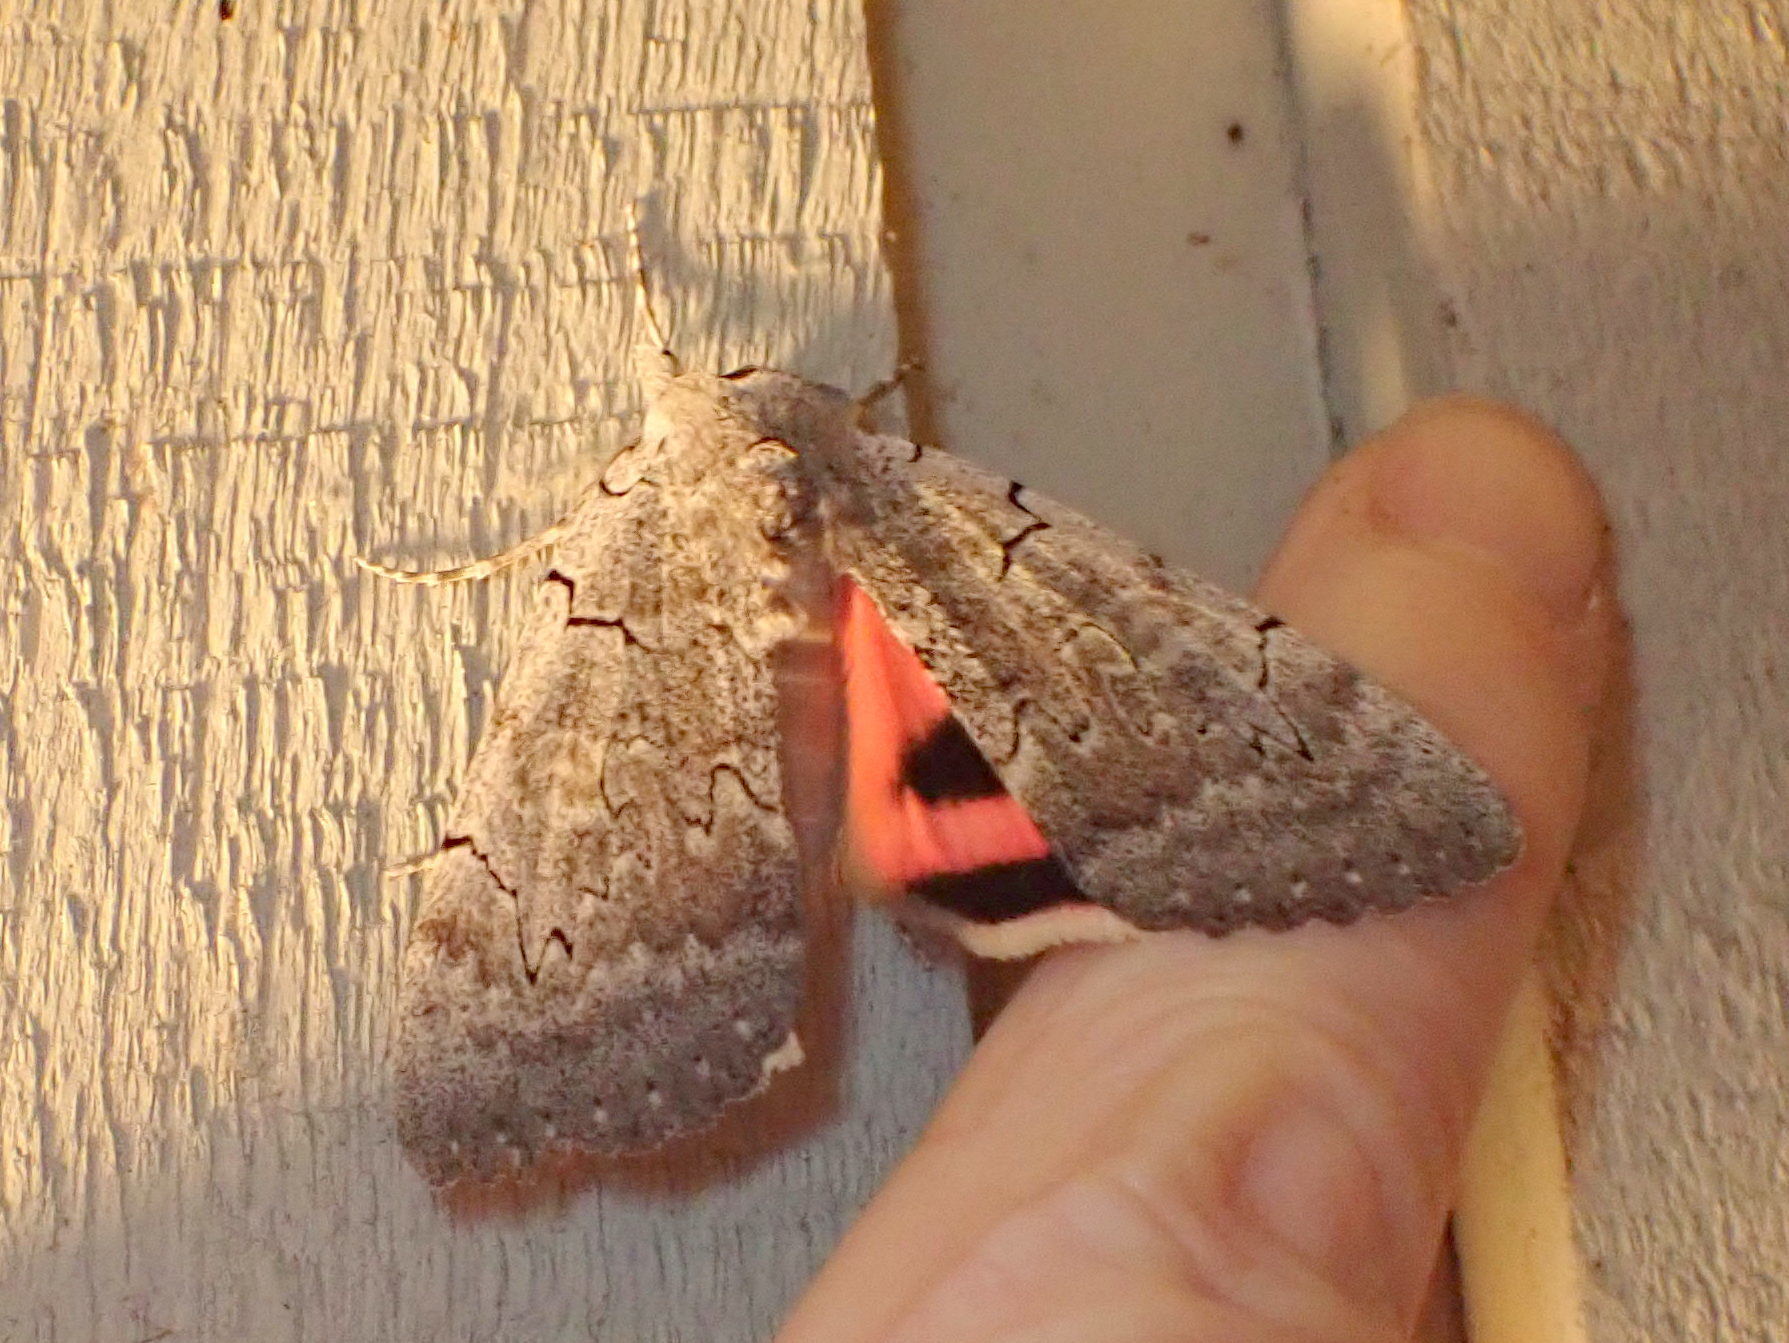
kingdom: Animalia
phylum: Arthropoda
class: Insecta
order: Lepidoptera
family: Erebidae
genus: Catocala
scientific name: Catocala concumbens
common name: Pink underwing
